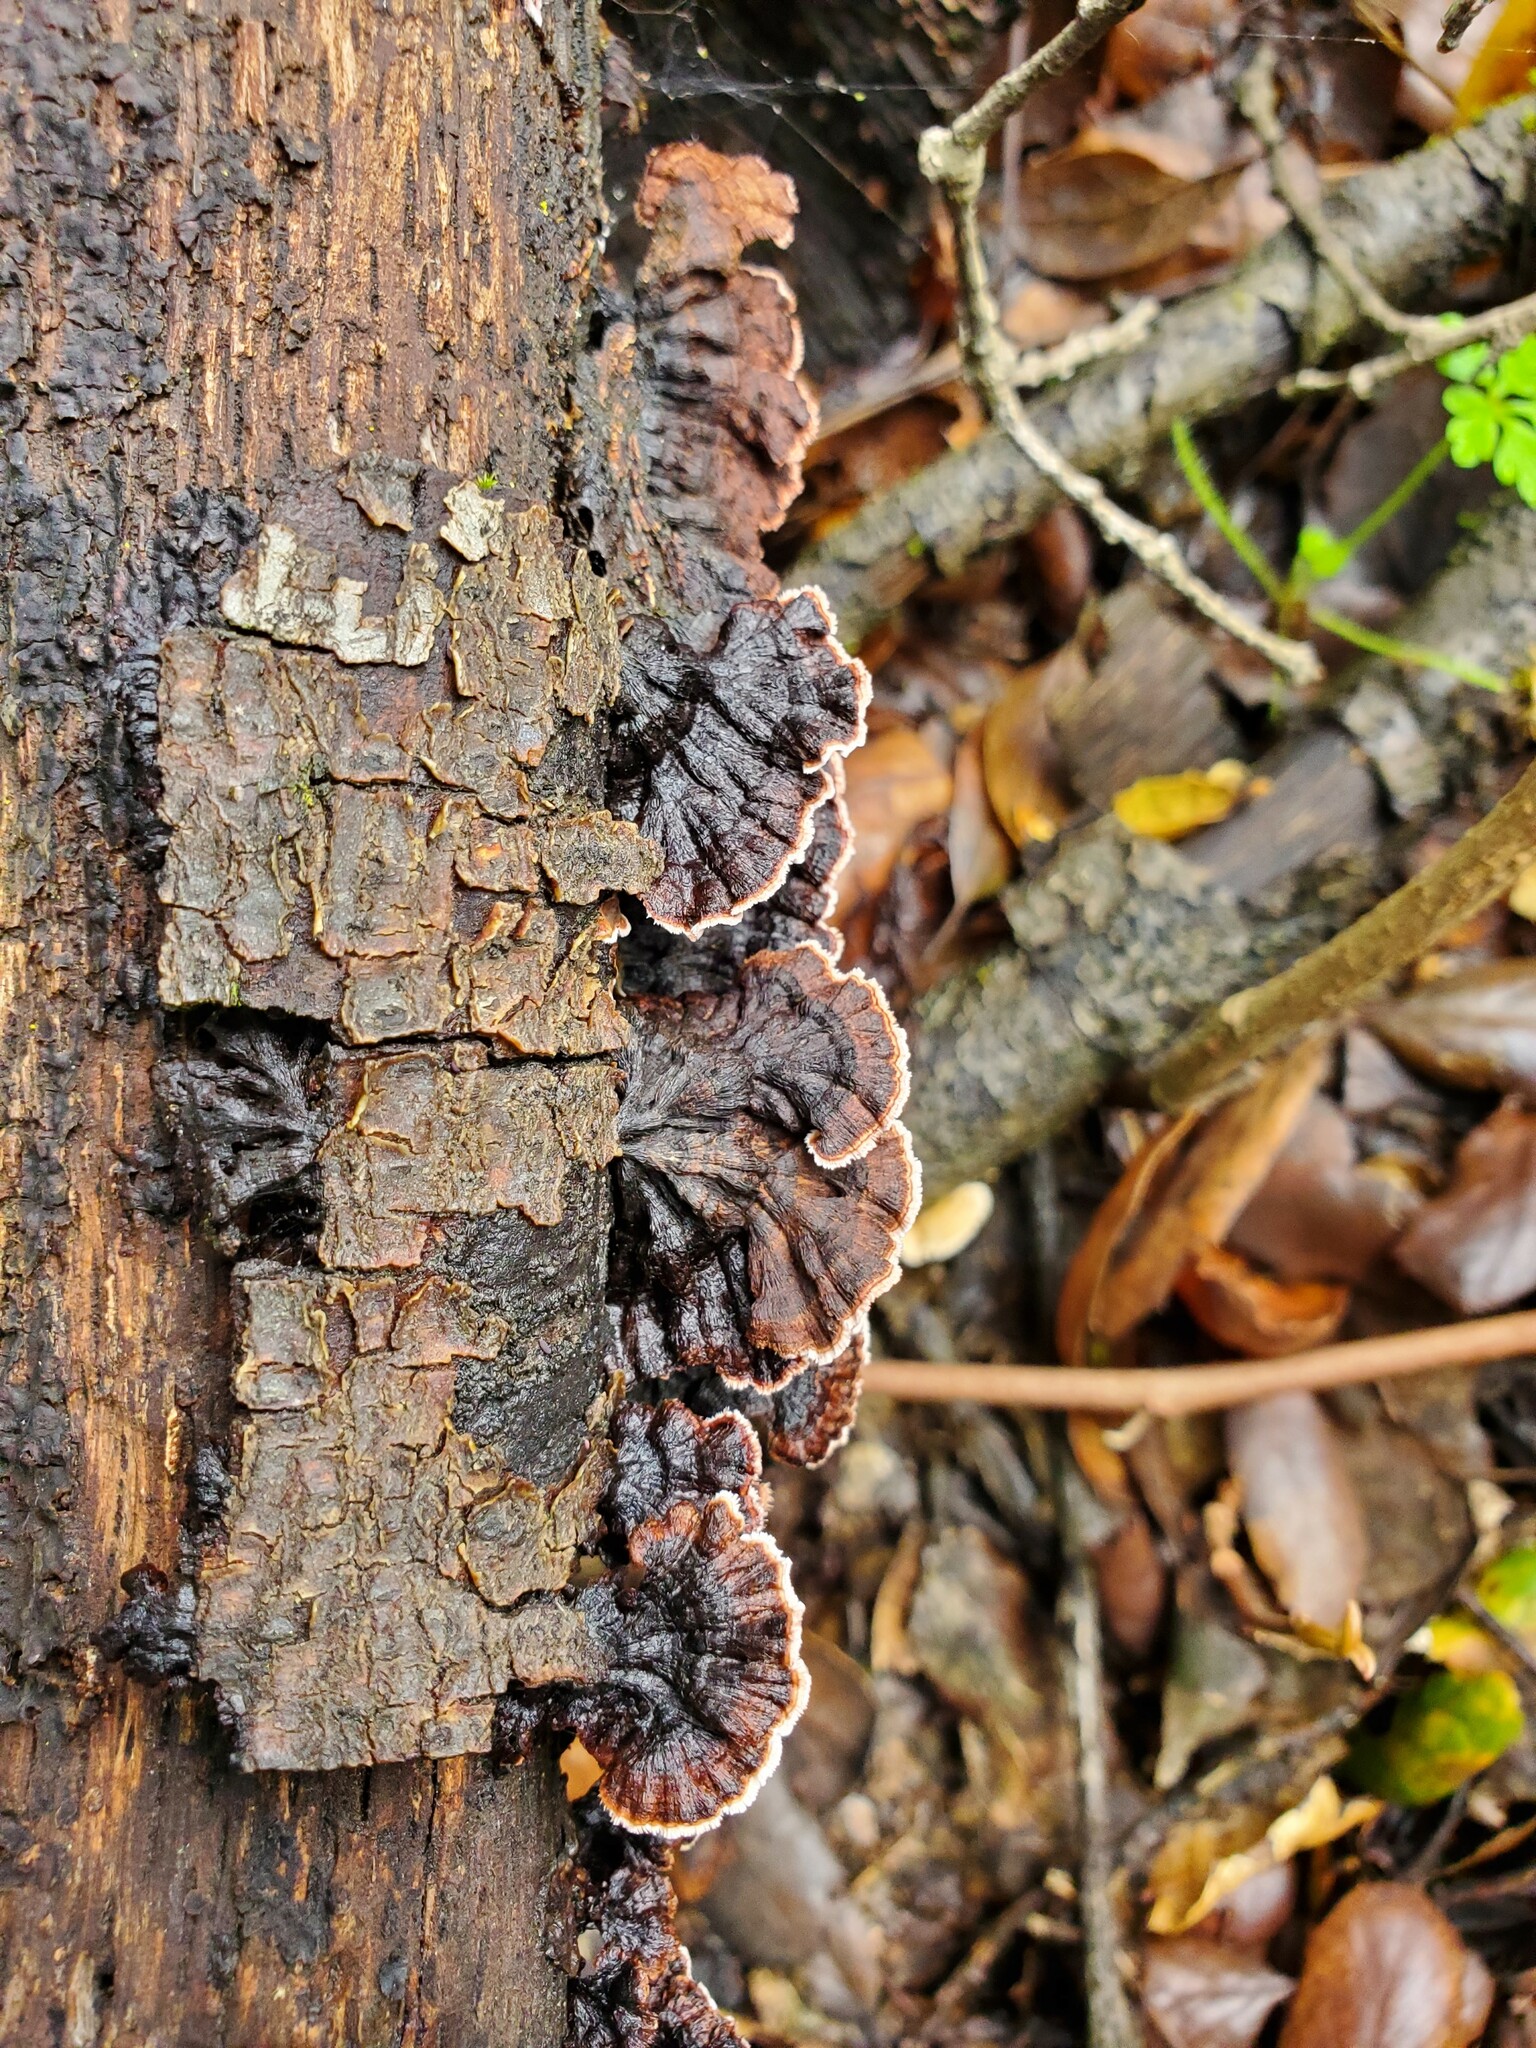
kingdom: Fungi
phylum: Basidiomycota
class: Agaricomycetes
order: Russulales
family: Peniophoraceae
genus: Peniophora
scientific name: Peniophora albobadia
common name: Giraffe spots
